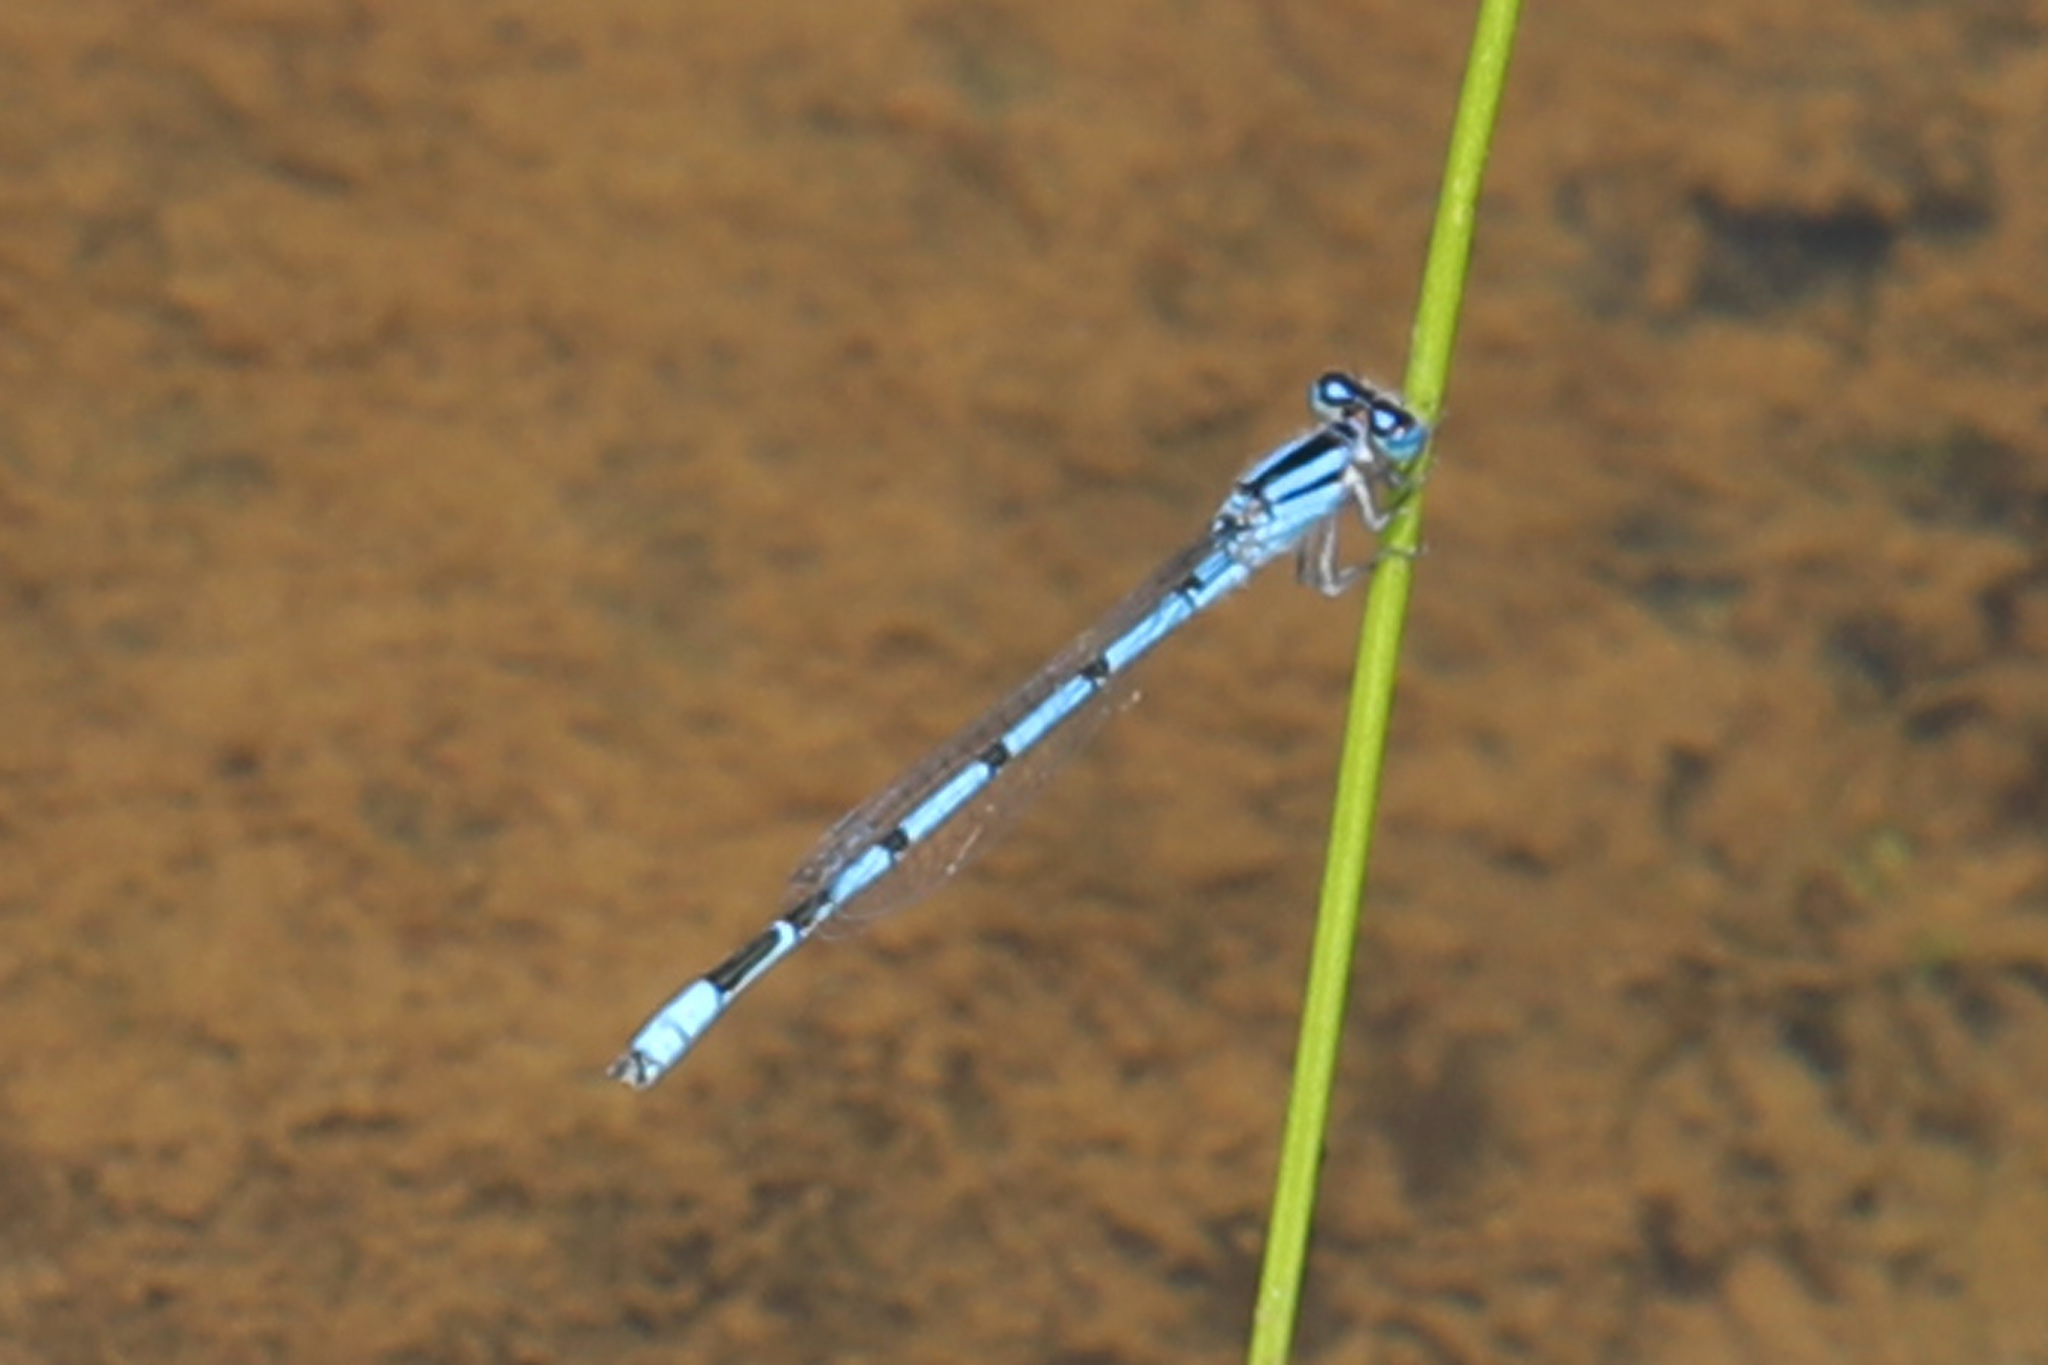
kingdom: Animalia
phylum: Arthropoda
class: Insecta
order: Odonata
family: Coenagrionidae
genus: Enallagma
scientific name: Enallagma civile
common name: Damselfly
